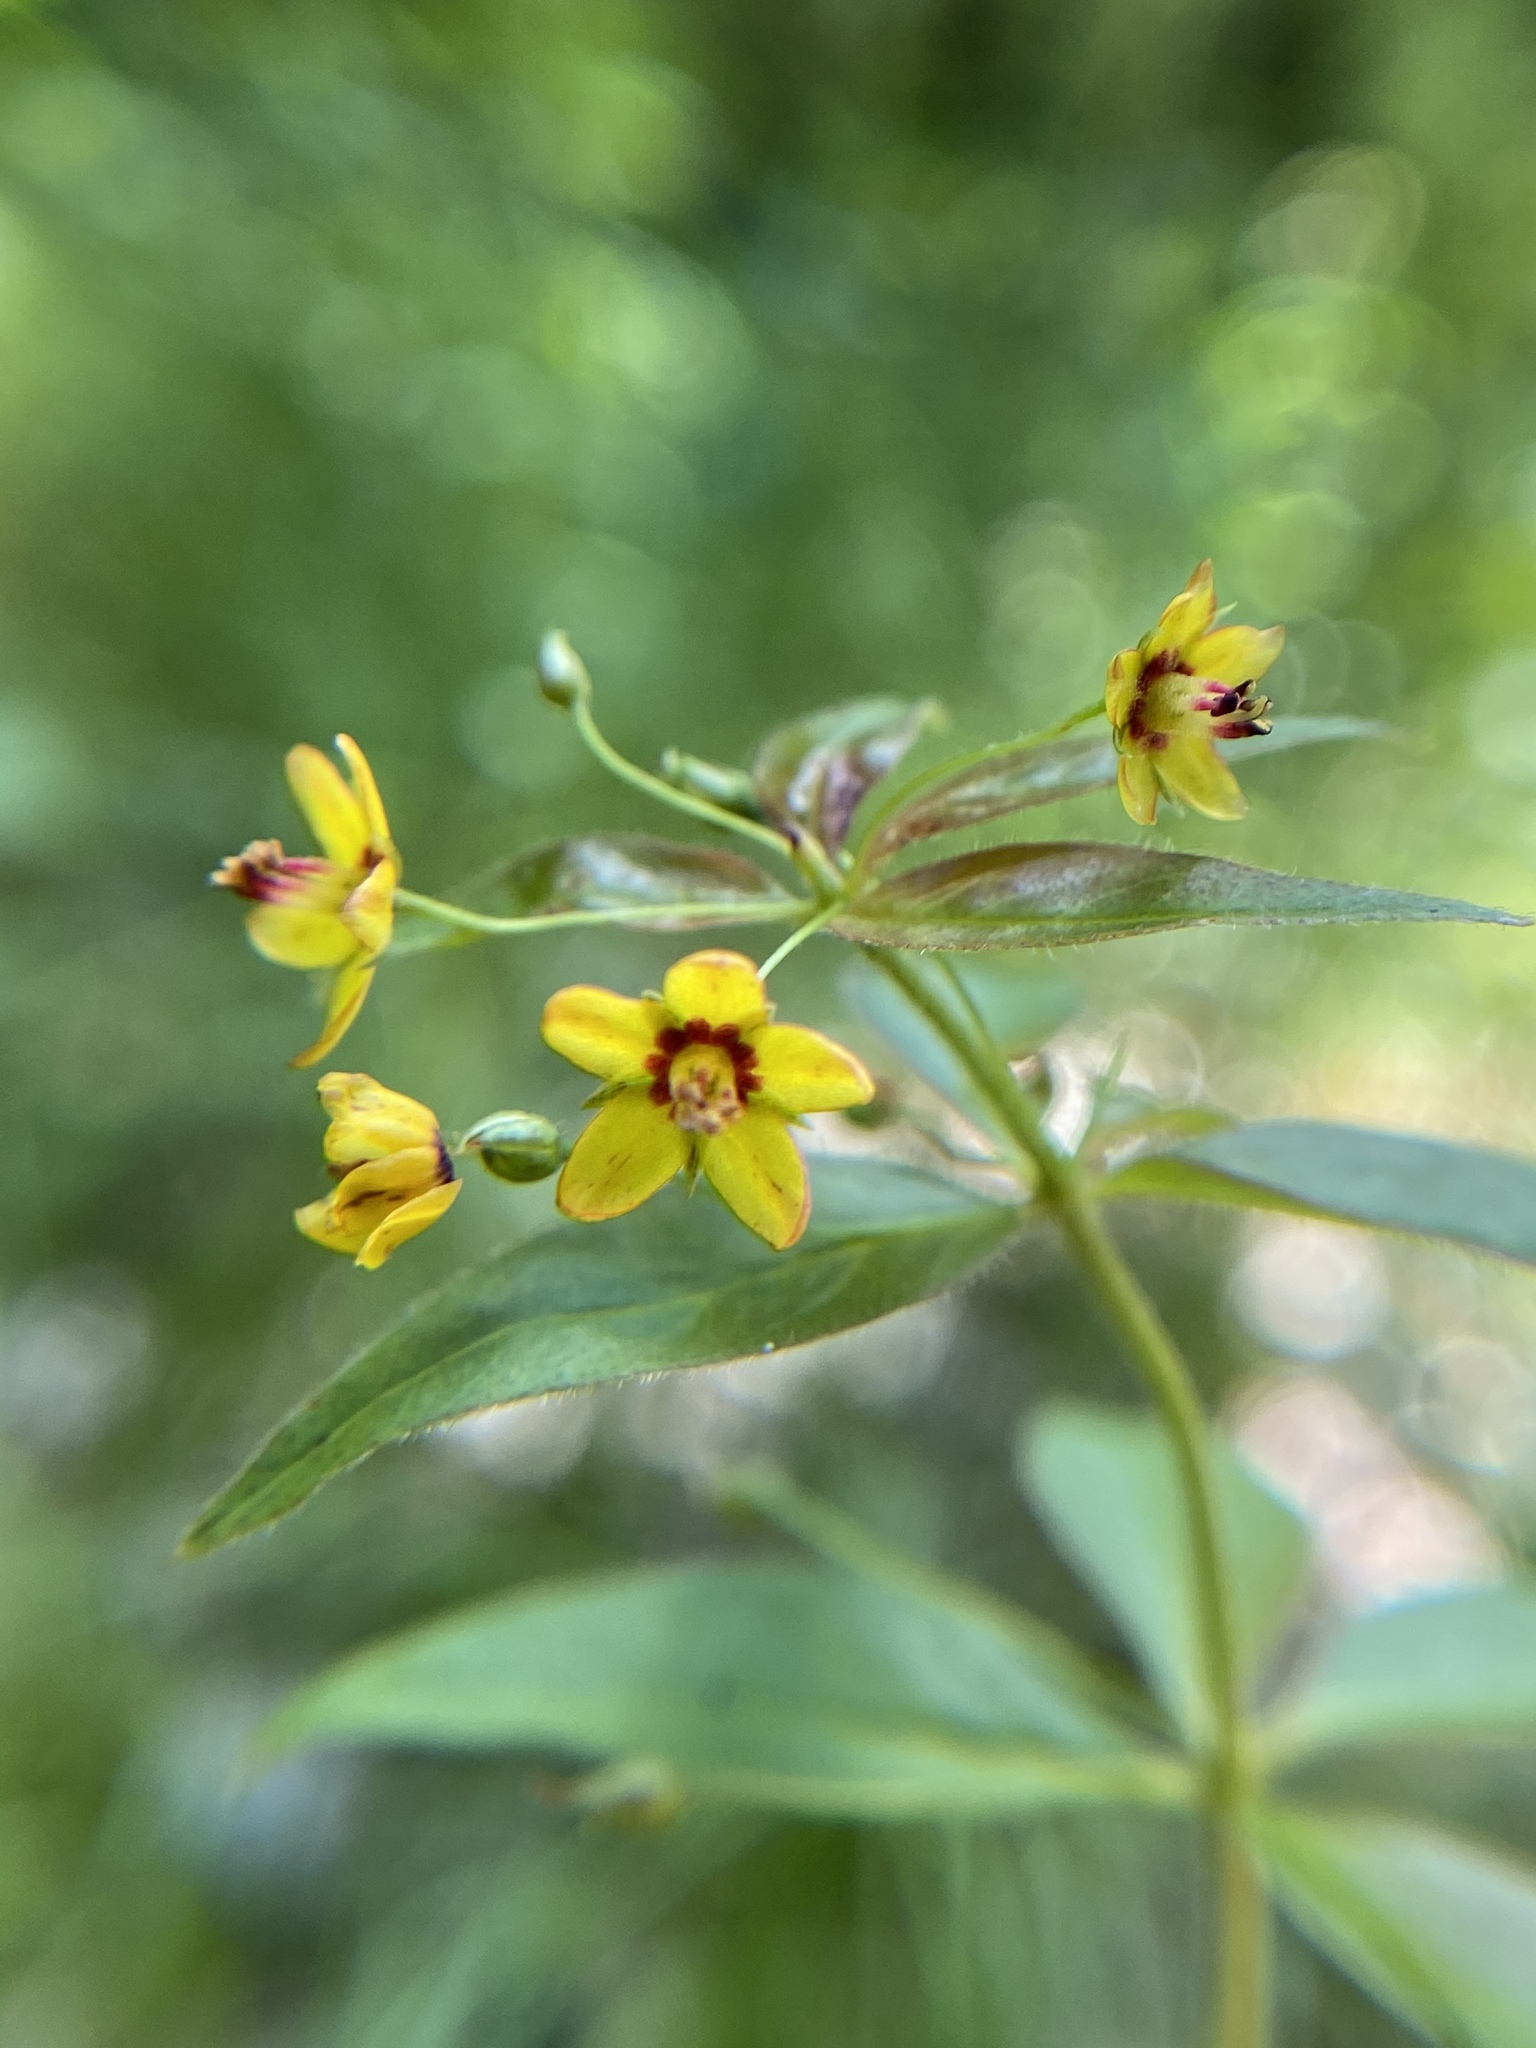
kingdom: Plantae
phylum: Tracheophyta
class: Magnoliopsida
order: Ericales
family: Primulaceae
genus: Lysimachia
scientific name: Lysimachia quadrifolia
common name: Whorled loosestrife
